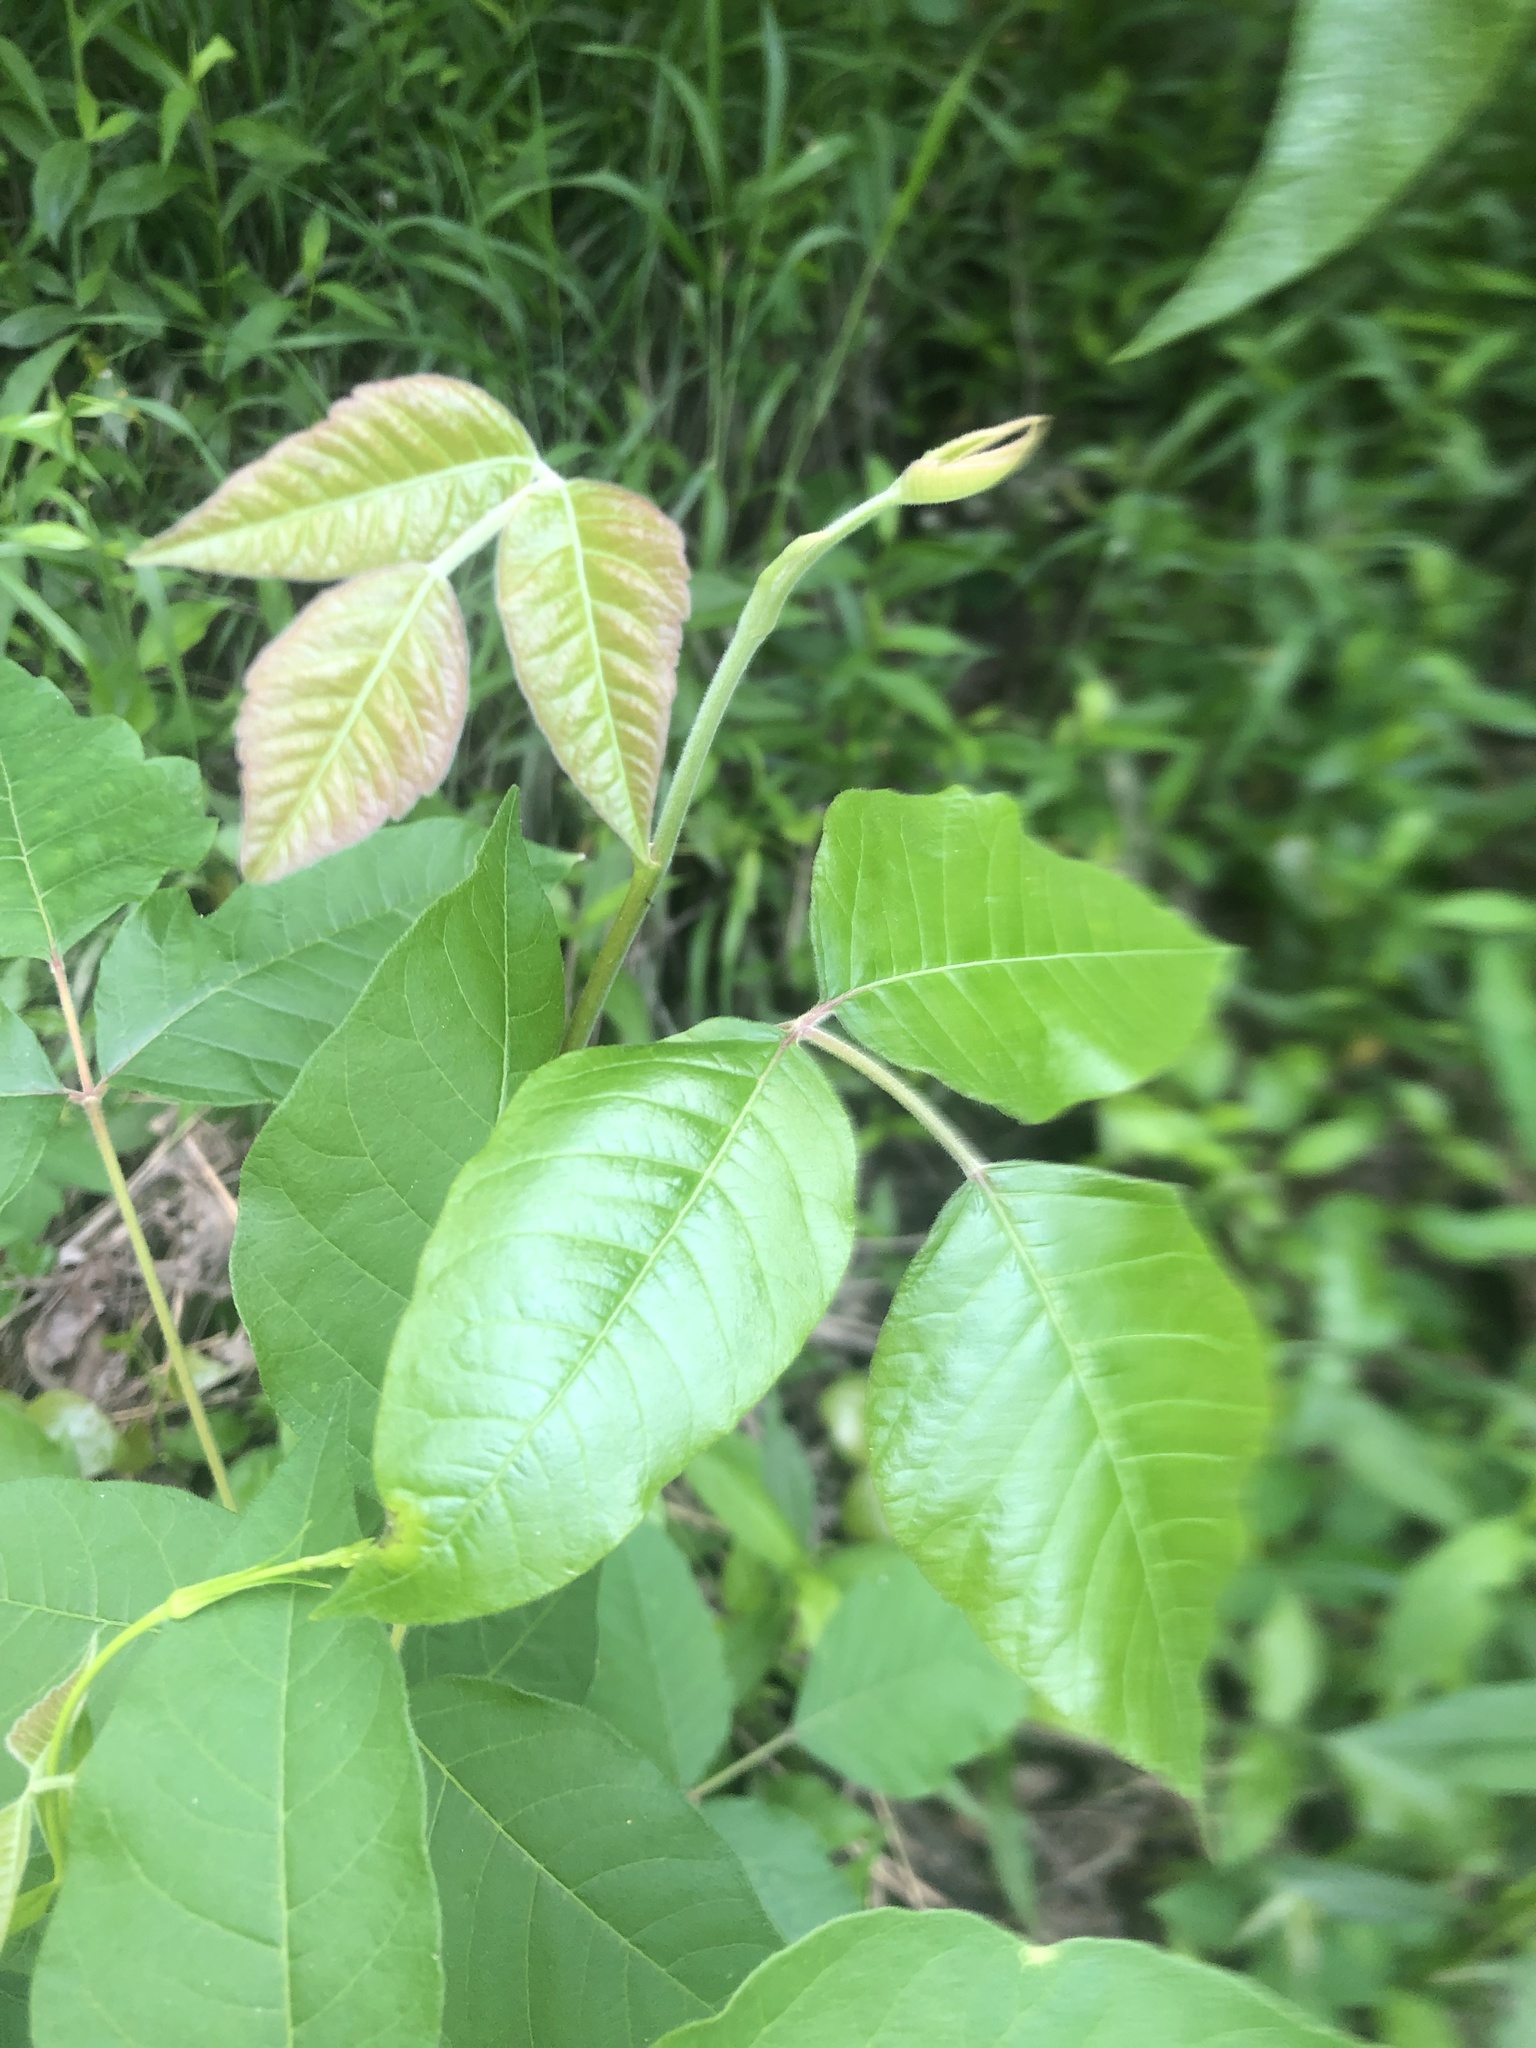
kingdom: Plantae
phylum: Tracheophyta
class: Magnoliopsida
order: Sapindales
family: Anacardiaceae
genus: Toxicodendron
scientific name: Toxicodendron radicans
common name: Poison ivy
